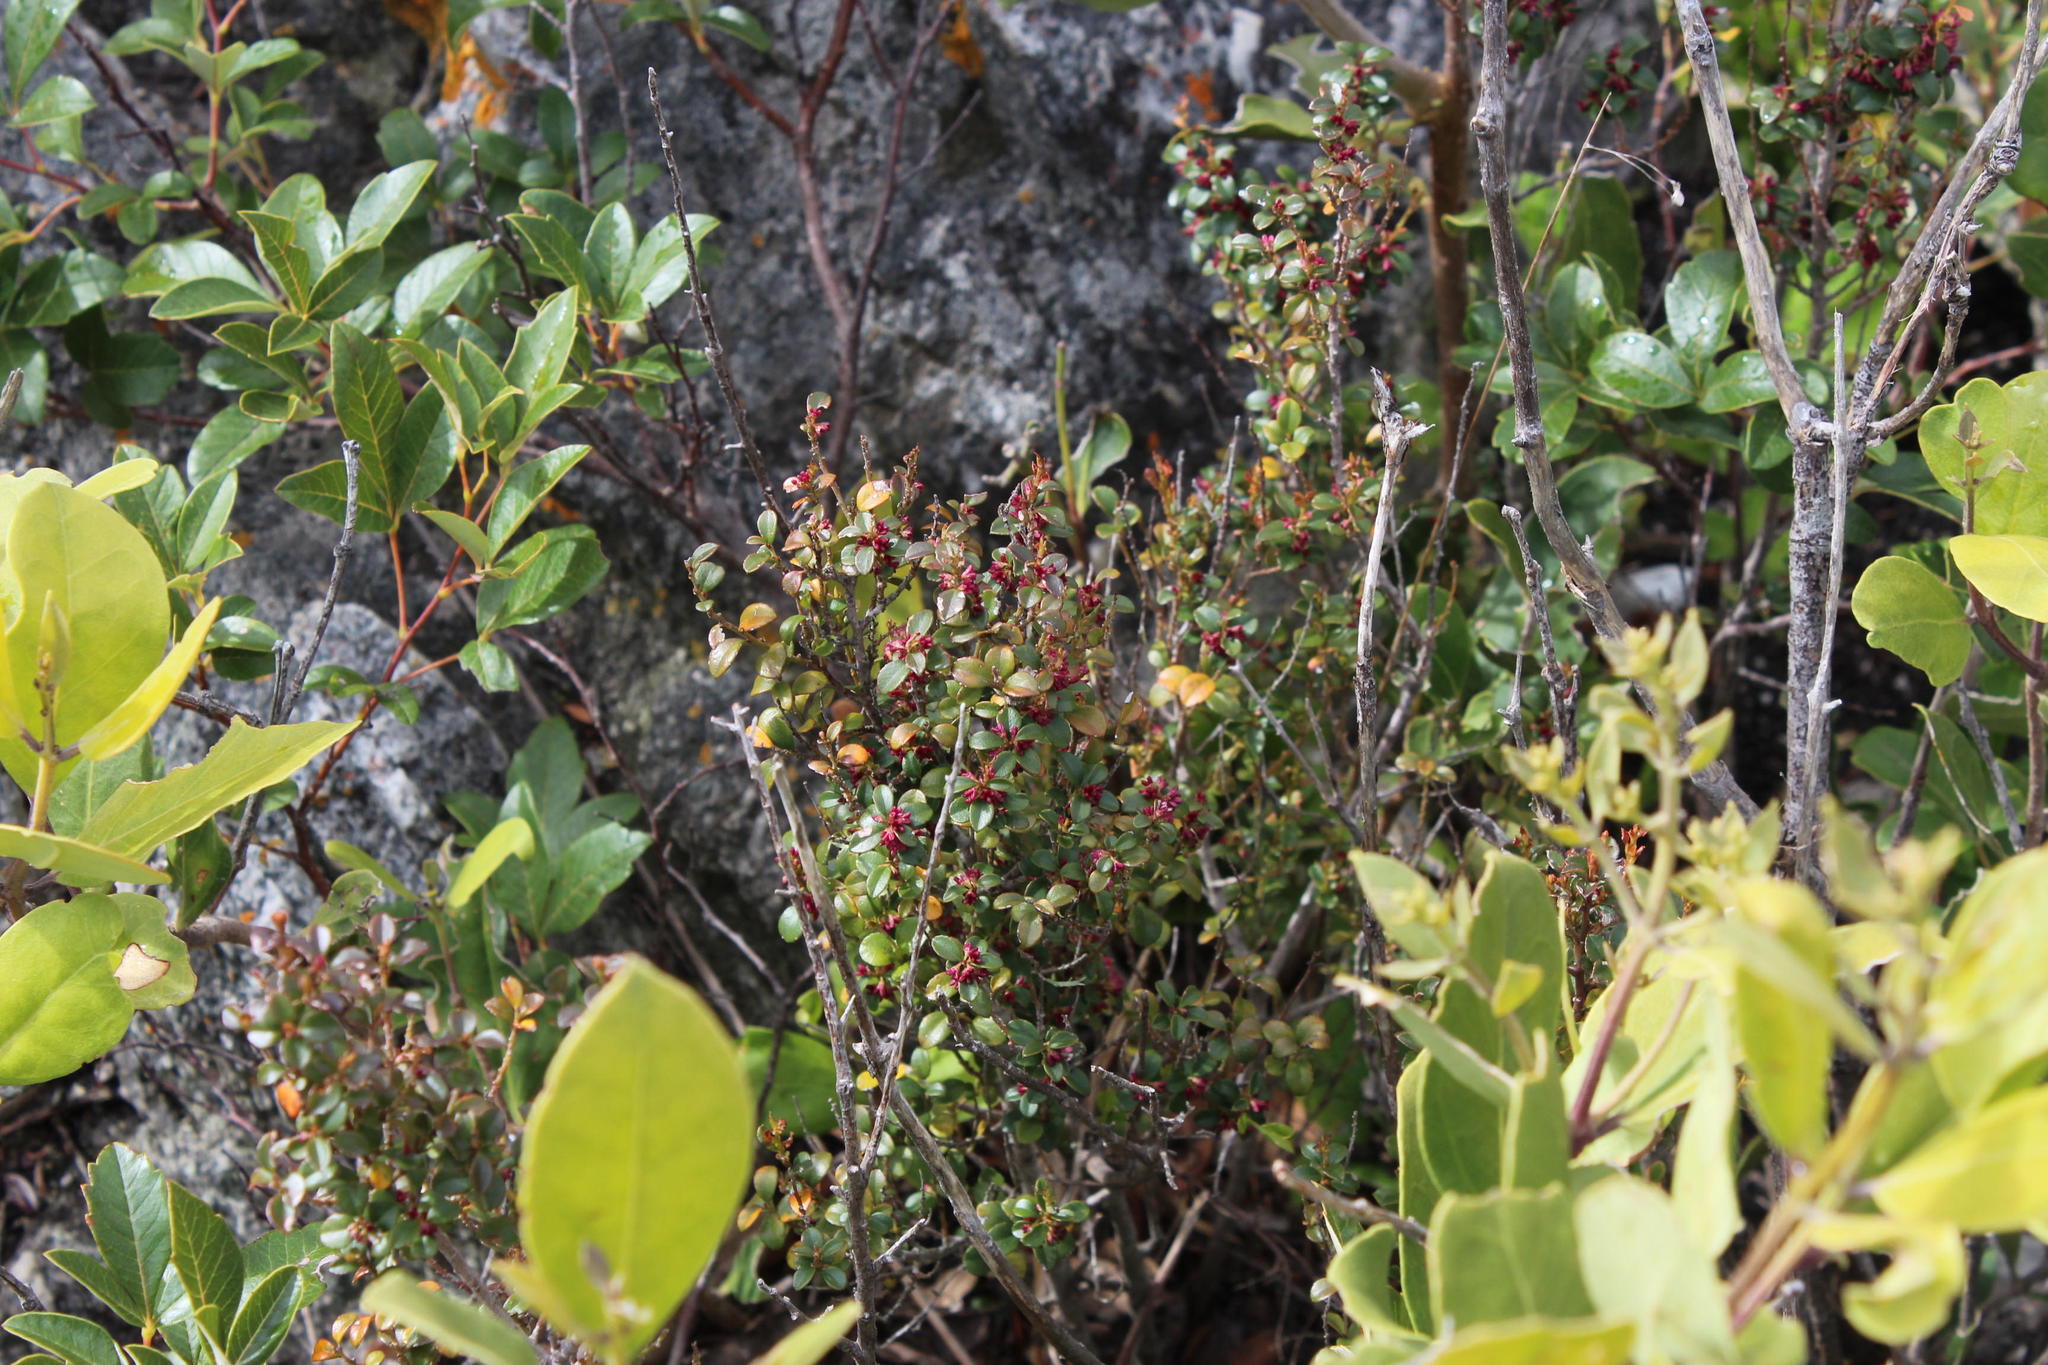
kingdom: Plantae
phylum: Tracheophyta
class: Magnoliopsida
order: Ericales
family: Primulaceae
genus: Myrsine
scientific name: Myrsine africana
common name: African-boxwood
